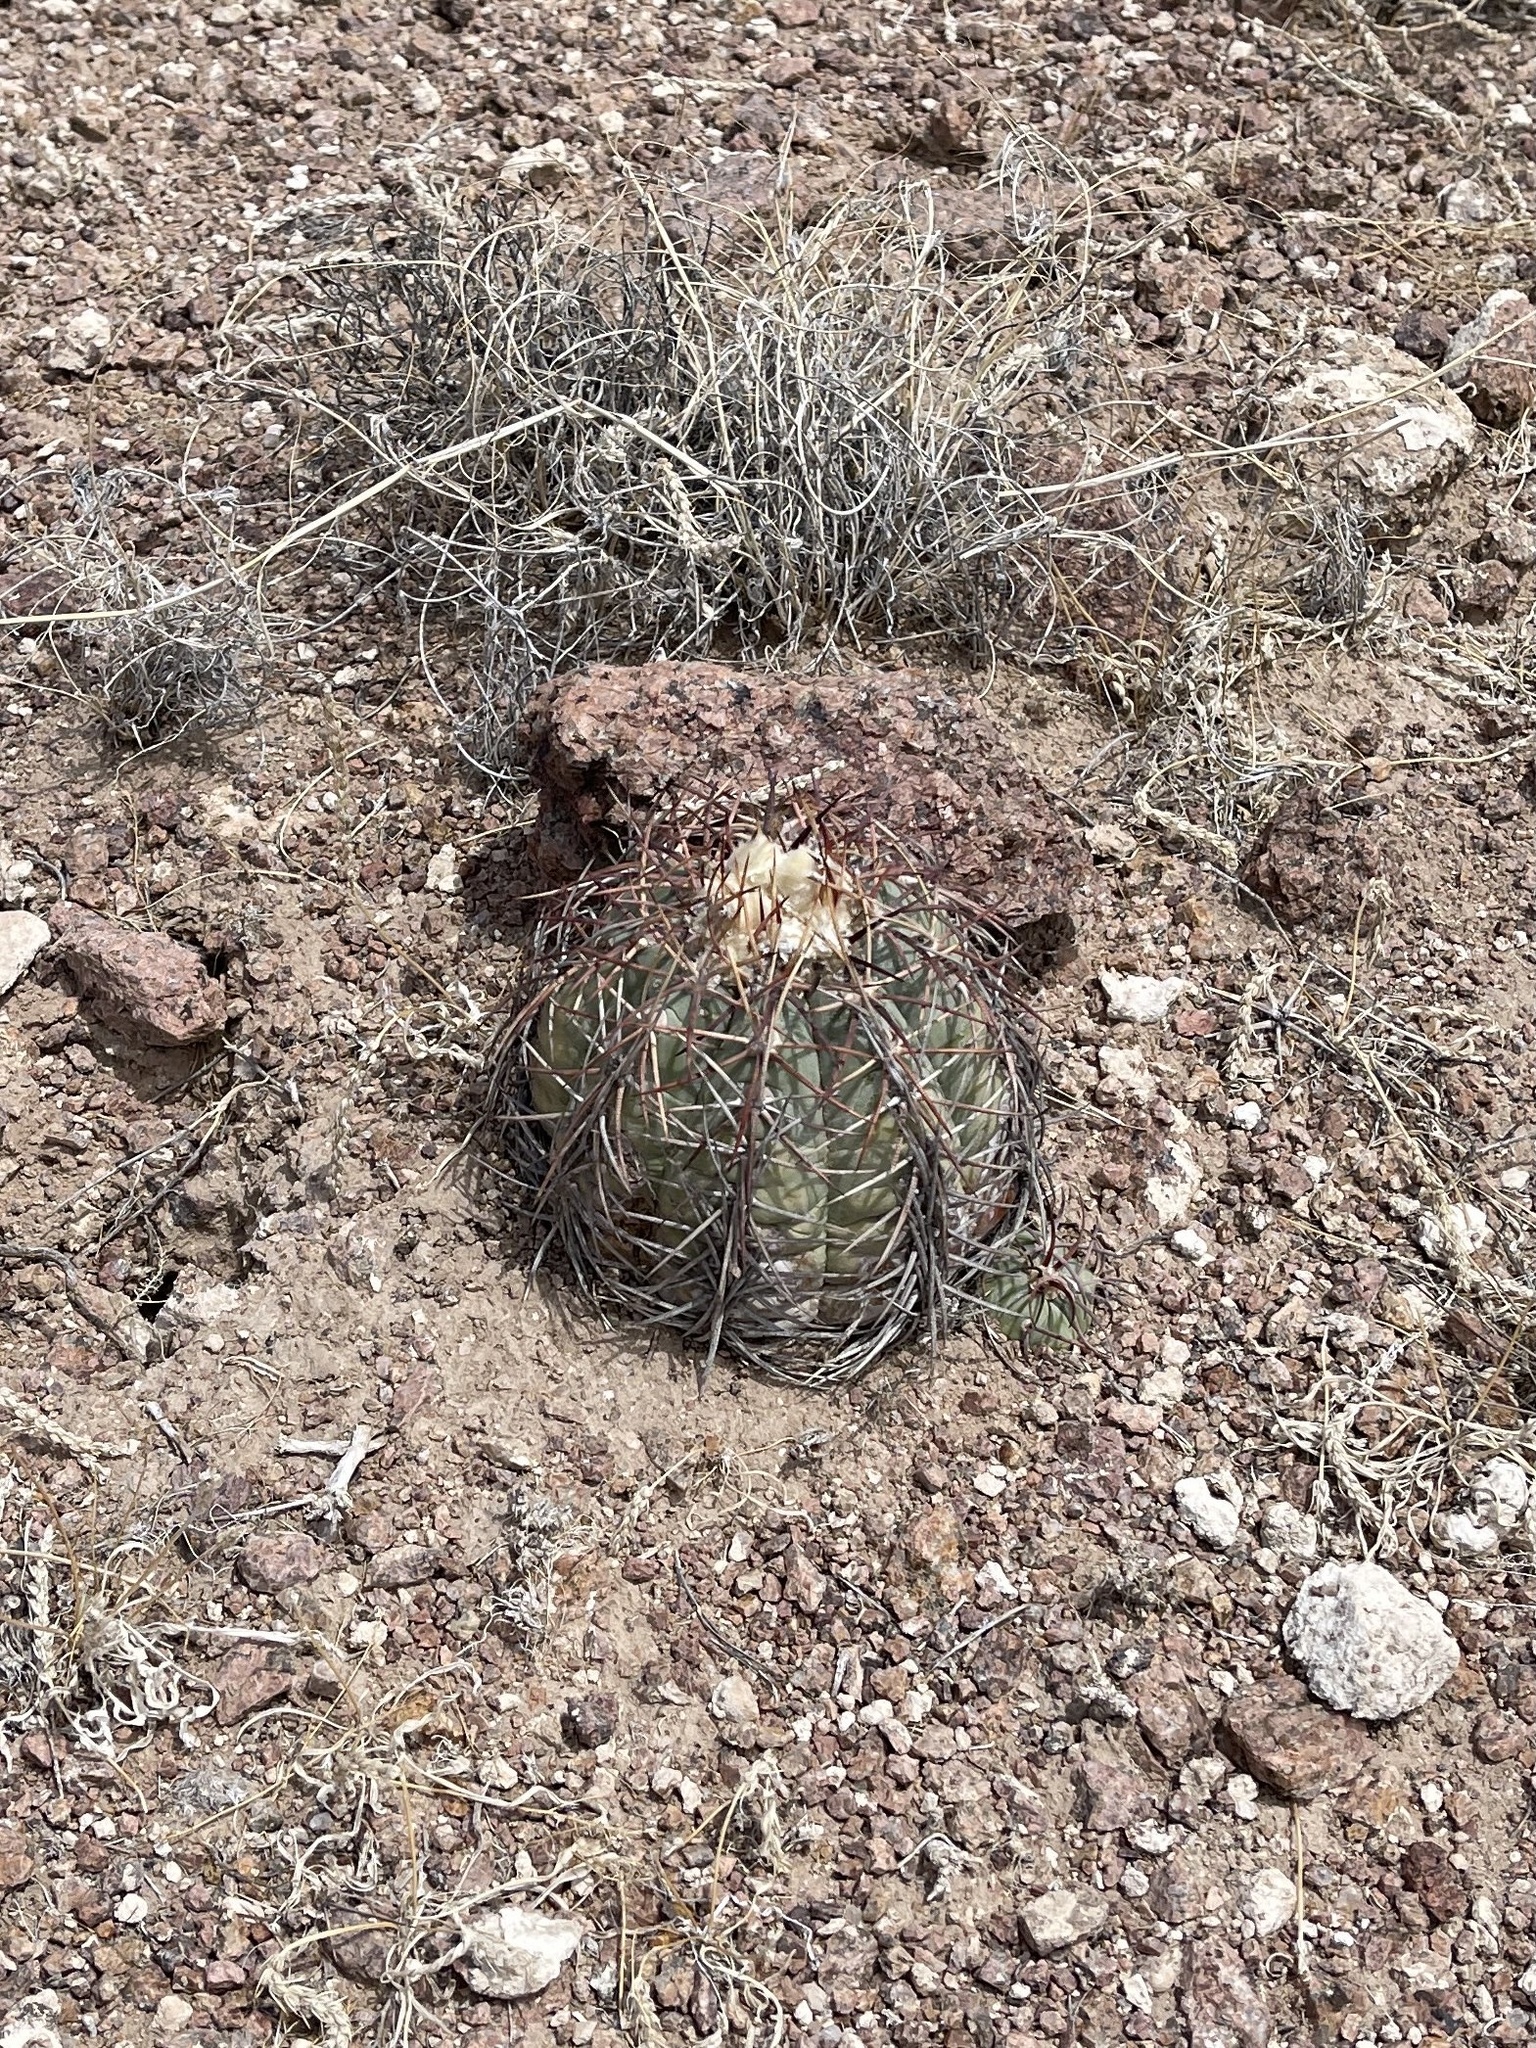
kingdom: Plantae
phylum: Tracheophyta
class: Magnoliopsida
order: Caryophyllales
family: Cactaceae
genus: Echinocactus
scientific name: Echinocactus horizonthalonius
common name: Devilshead
